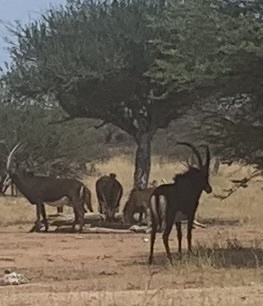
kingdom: Animalia
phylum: Chordata
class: Mammalia
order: Artiodactyla
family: Bovidae
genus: Hippotragus
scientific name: Hippotragus niger
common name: Sable antelope
